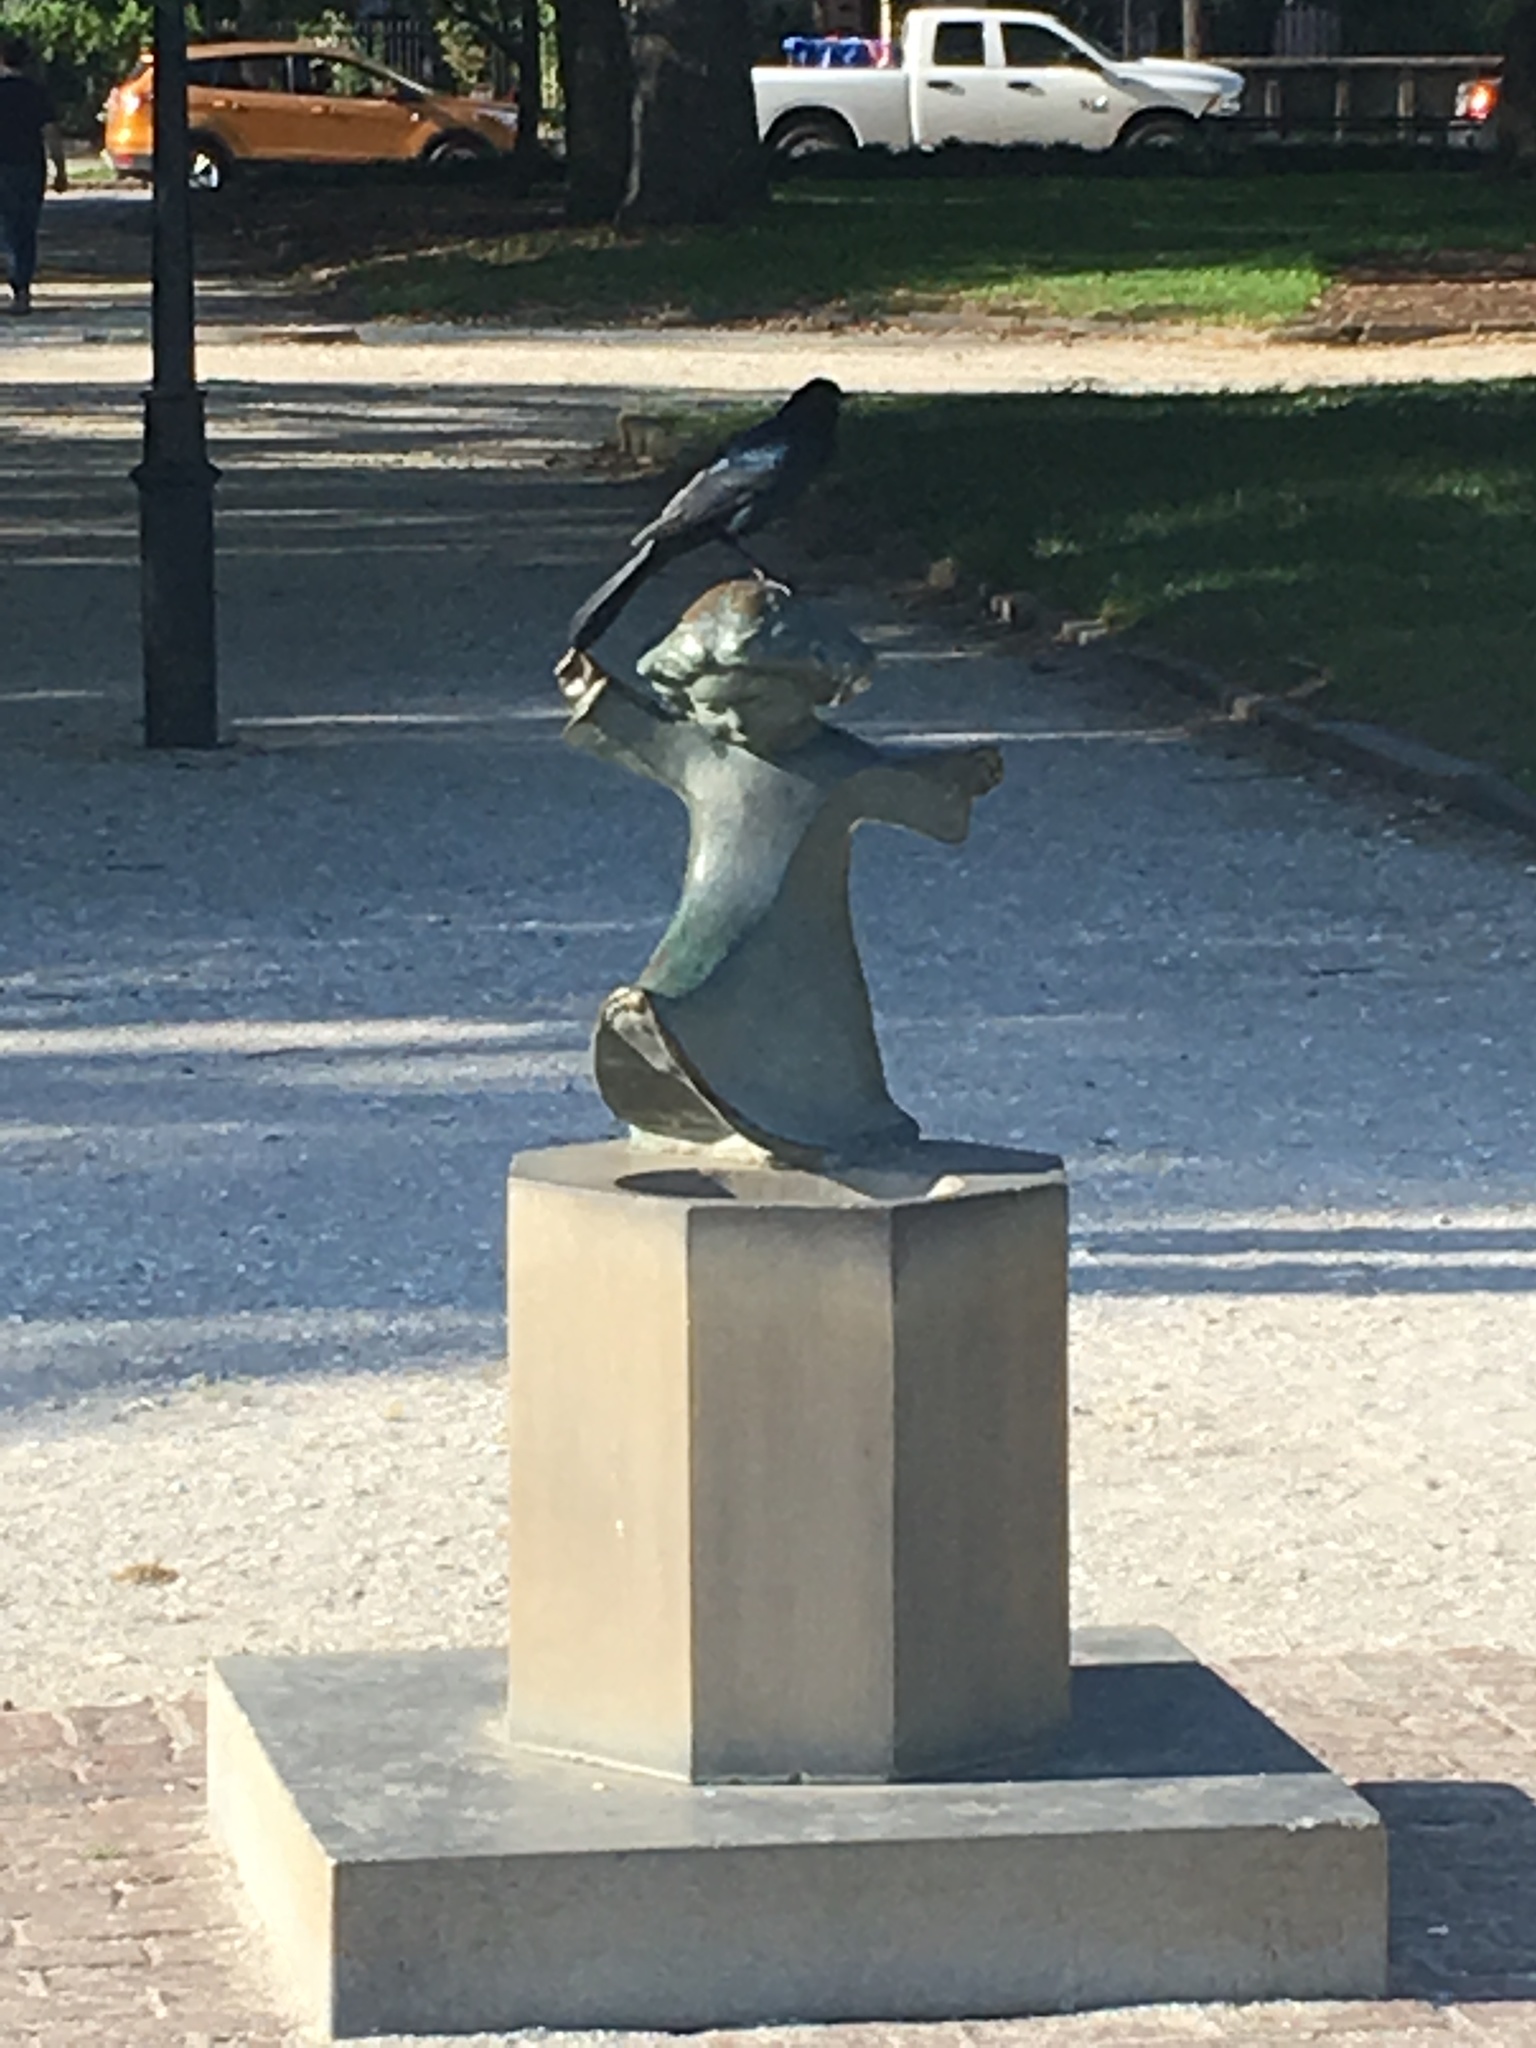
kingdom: Animalia
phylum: Chordata
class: Aves
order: Passeriformes
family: Icteridae
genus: Quiscalus
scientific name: Quiscalus major
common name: Boat-tailed grackle
